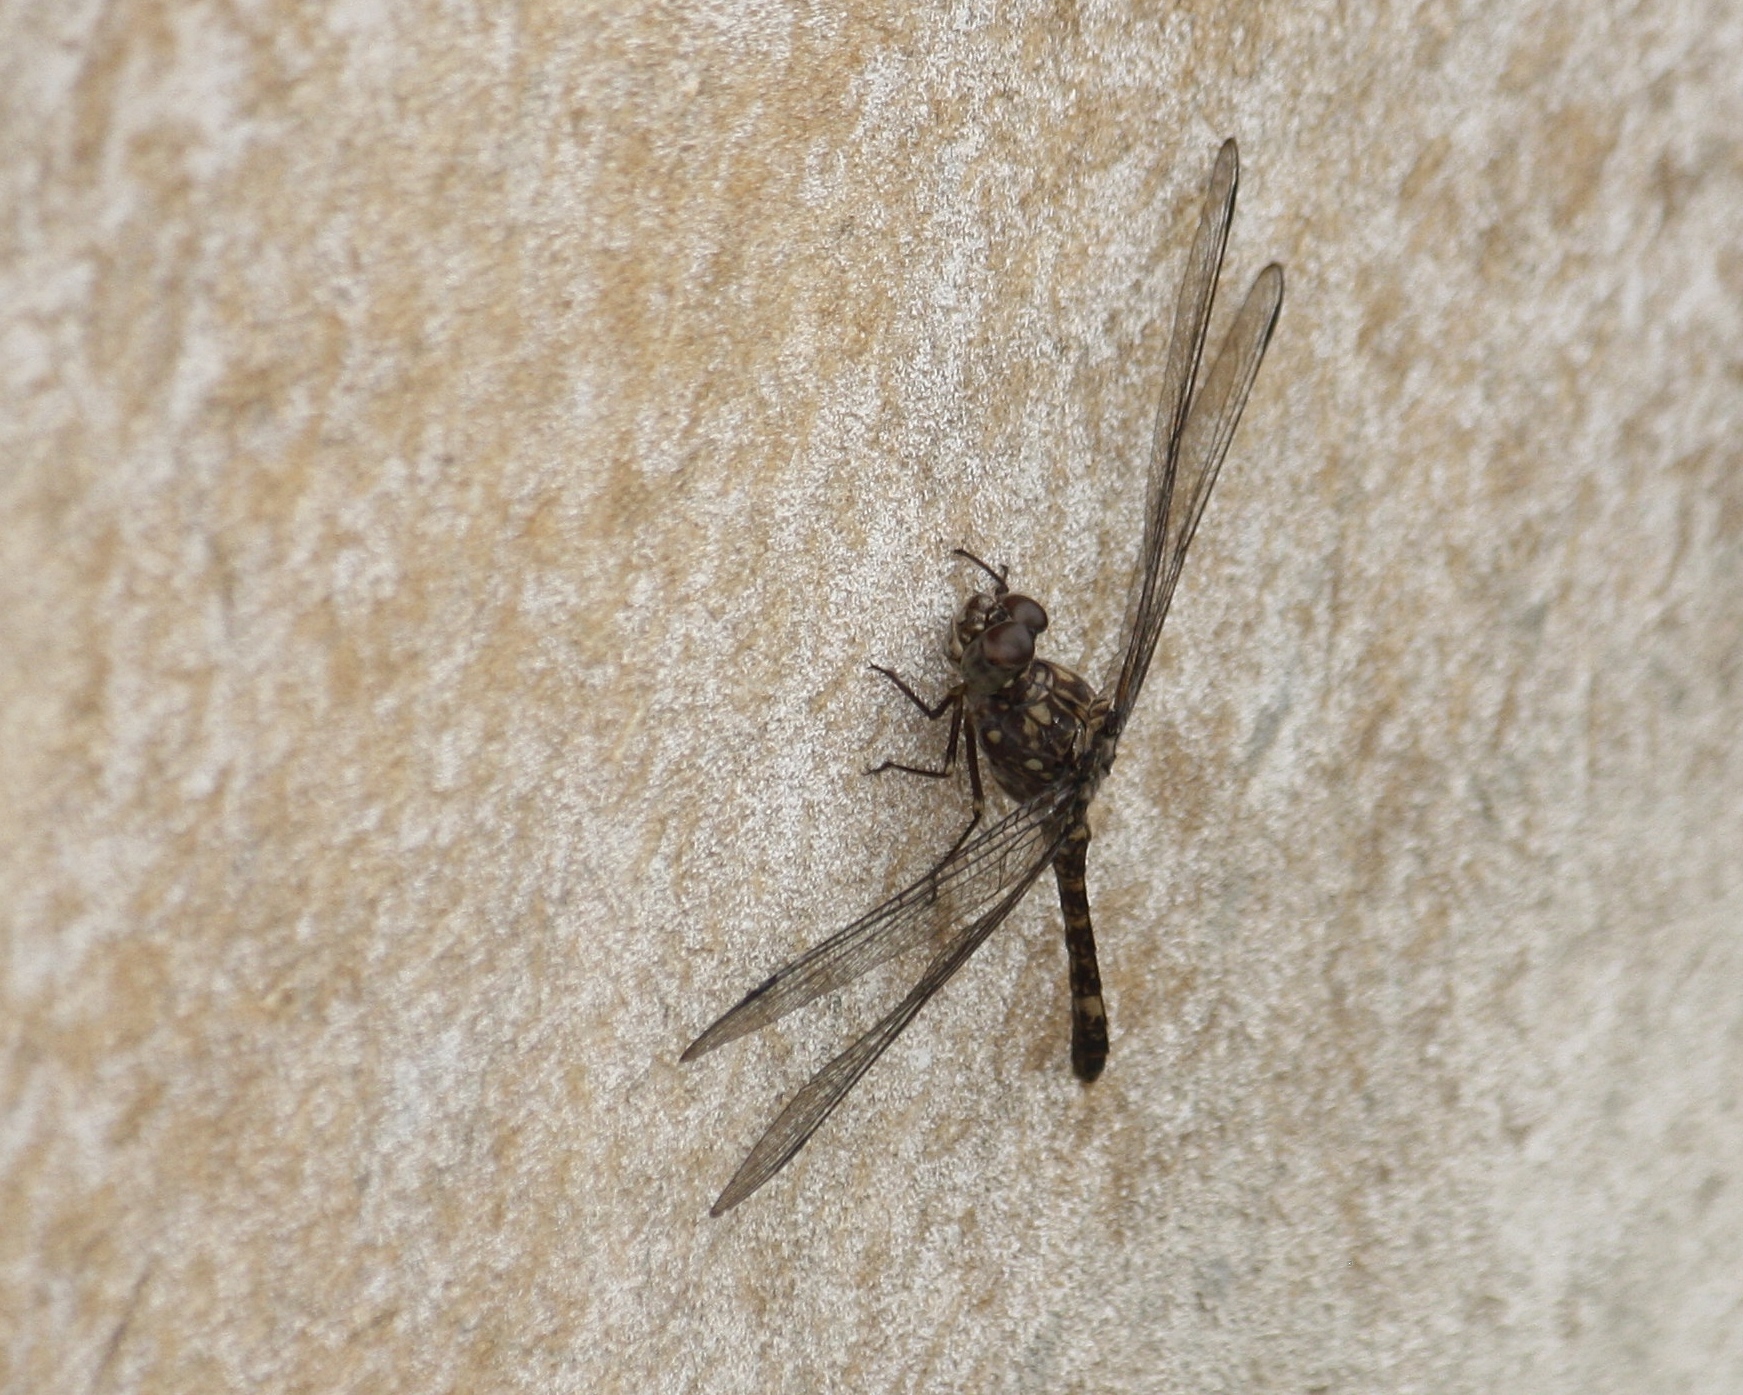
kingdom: Animalia
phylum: Arthropoda
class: Insecta
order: Odonata
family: Libellulidae
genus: Bradinopyga
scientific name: Bradinopyga cornuta
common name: Flecked wall-skimmer
